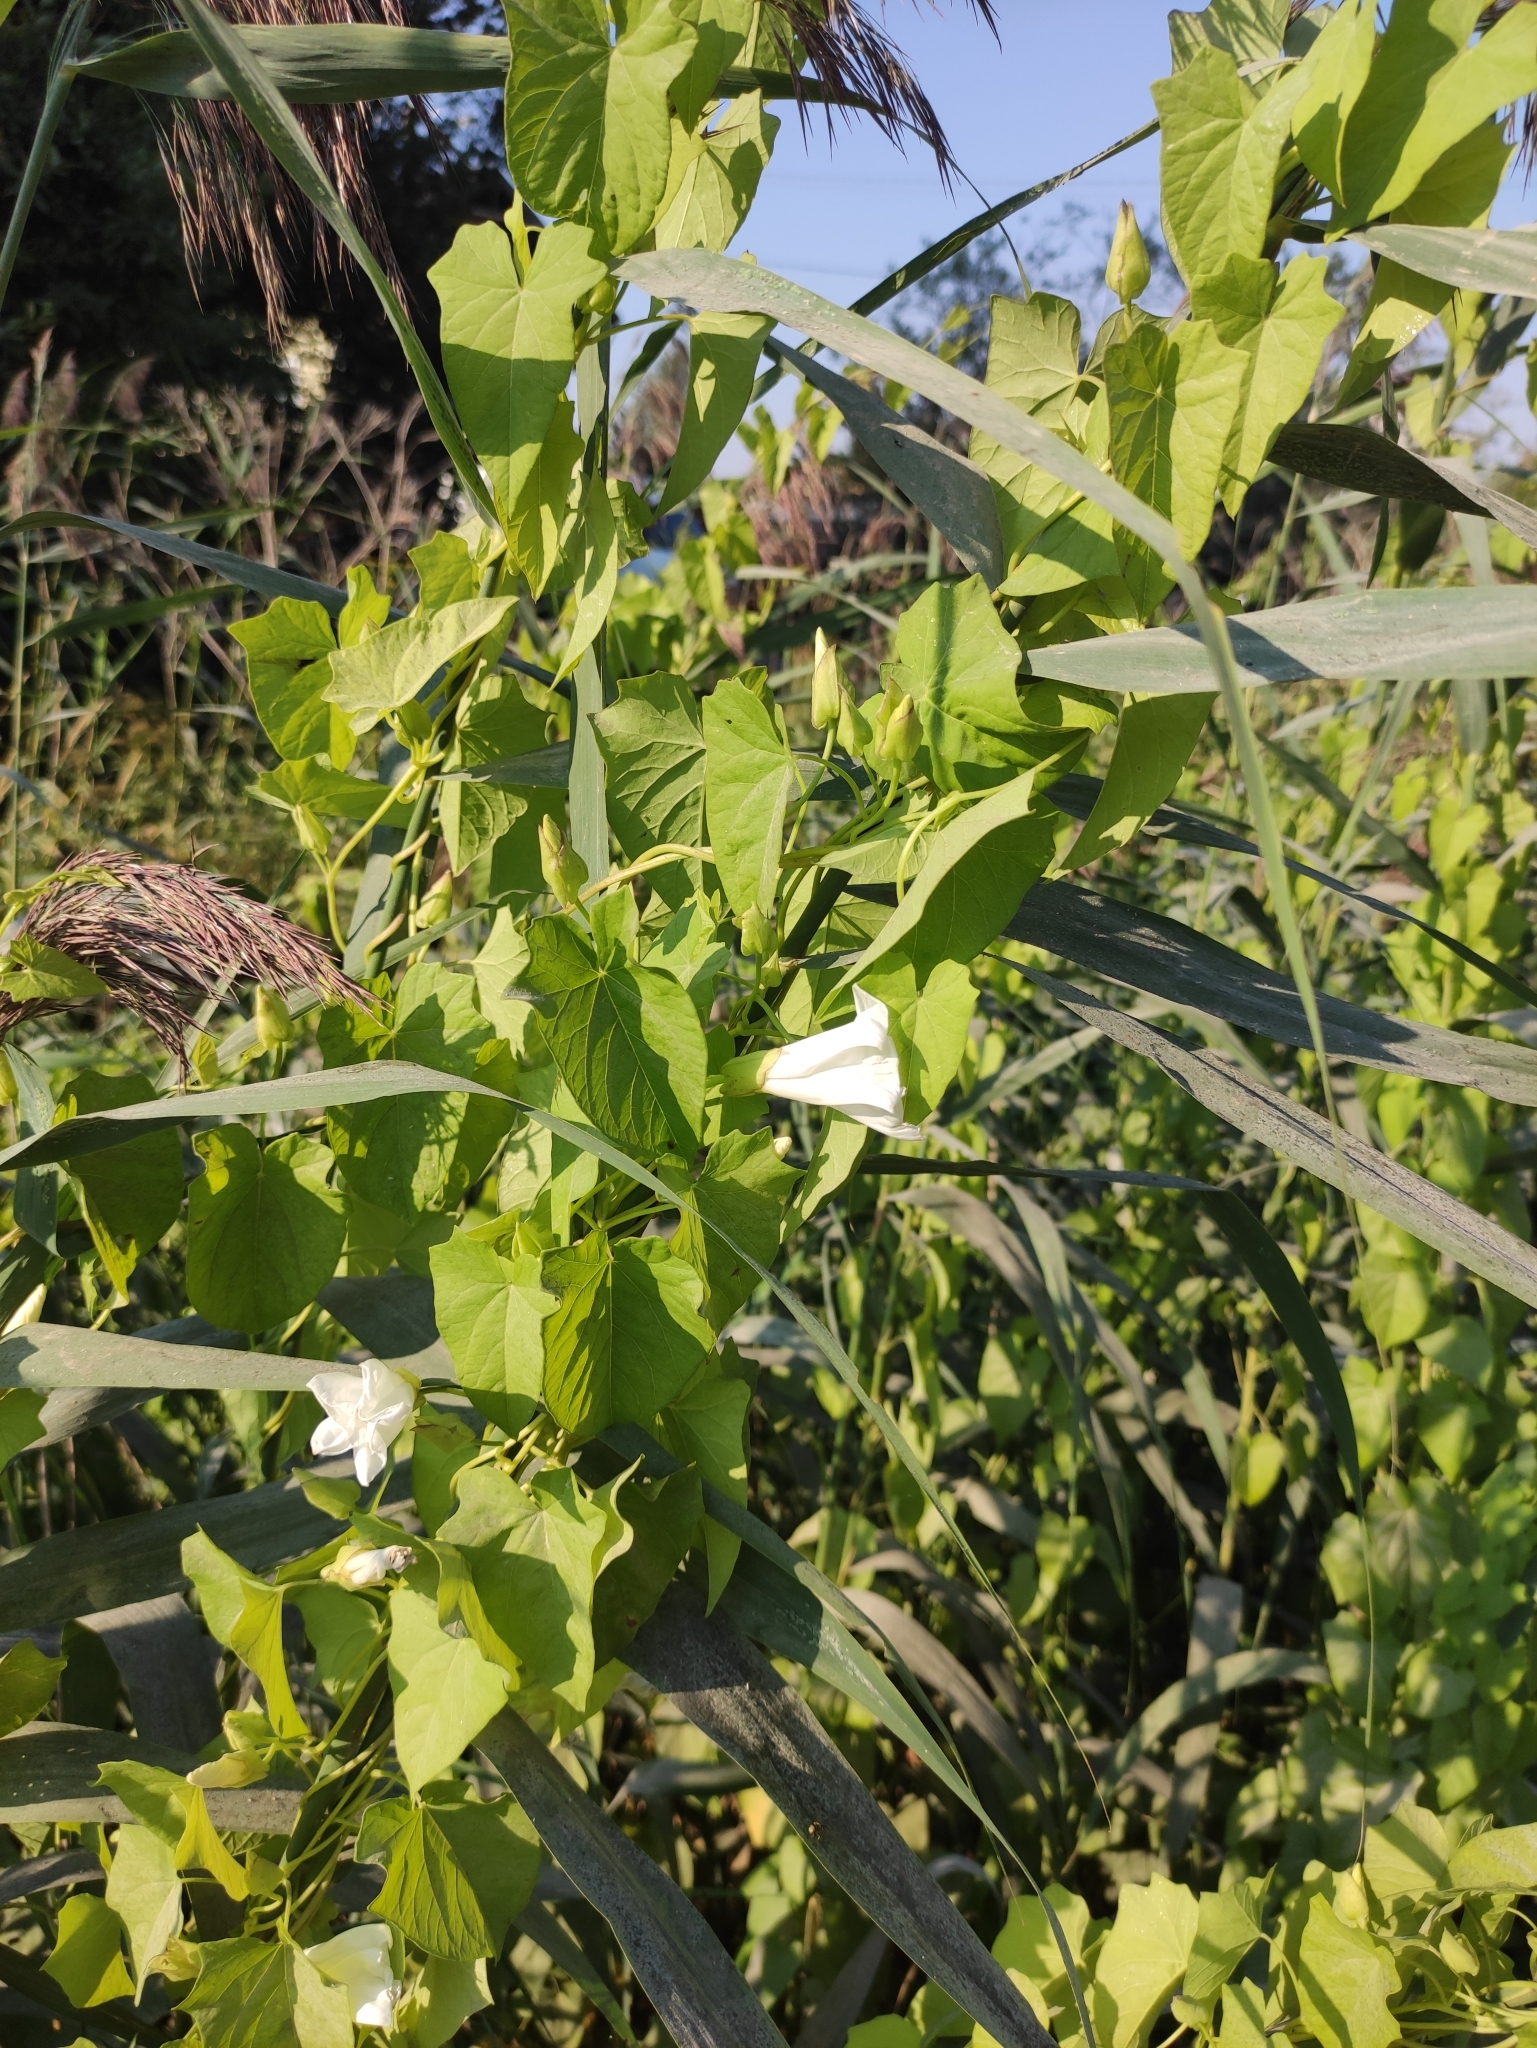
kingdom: Plantae
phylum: Tracheophyta
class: Magnoliopsida
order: Solanales
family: Convolvulaceae
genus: Calystegia
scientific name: Calystegia sepium
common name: Hedge bindweed
